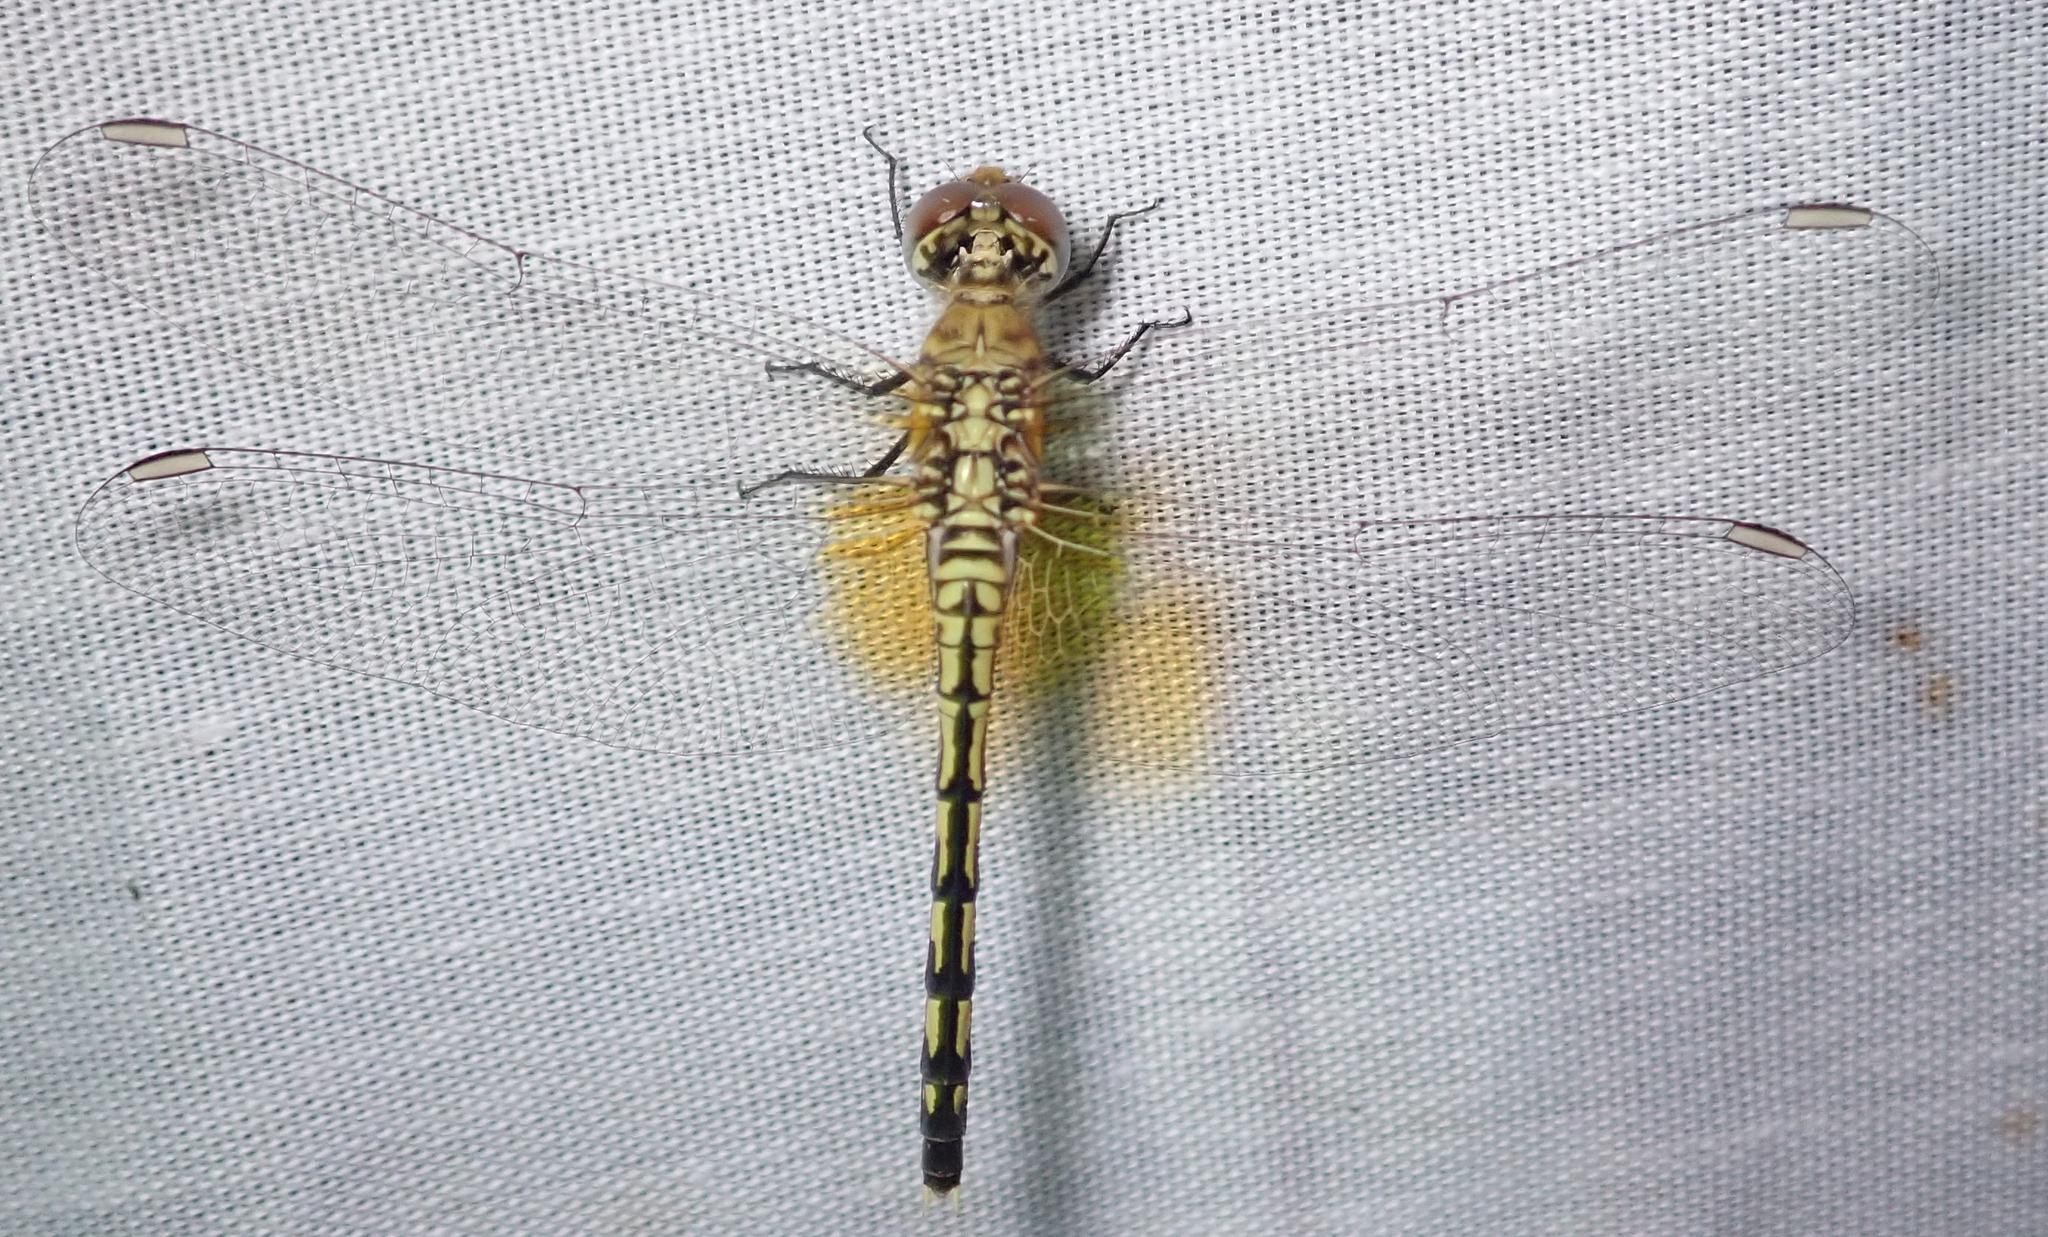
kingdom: Animalia
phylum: Arthropoda
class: Insecta
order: Odonata
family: Libellulidae
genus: Diplacodes
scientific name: Diplacodes luminans
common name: Barbet percher
